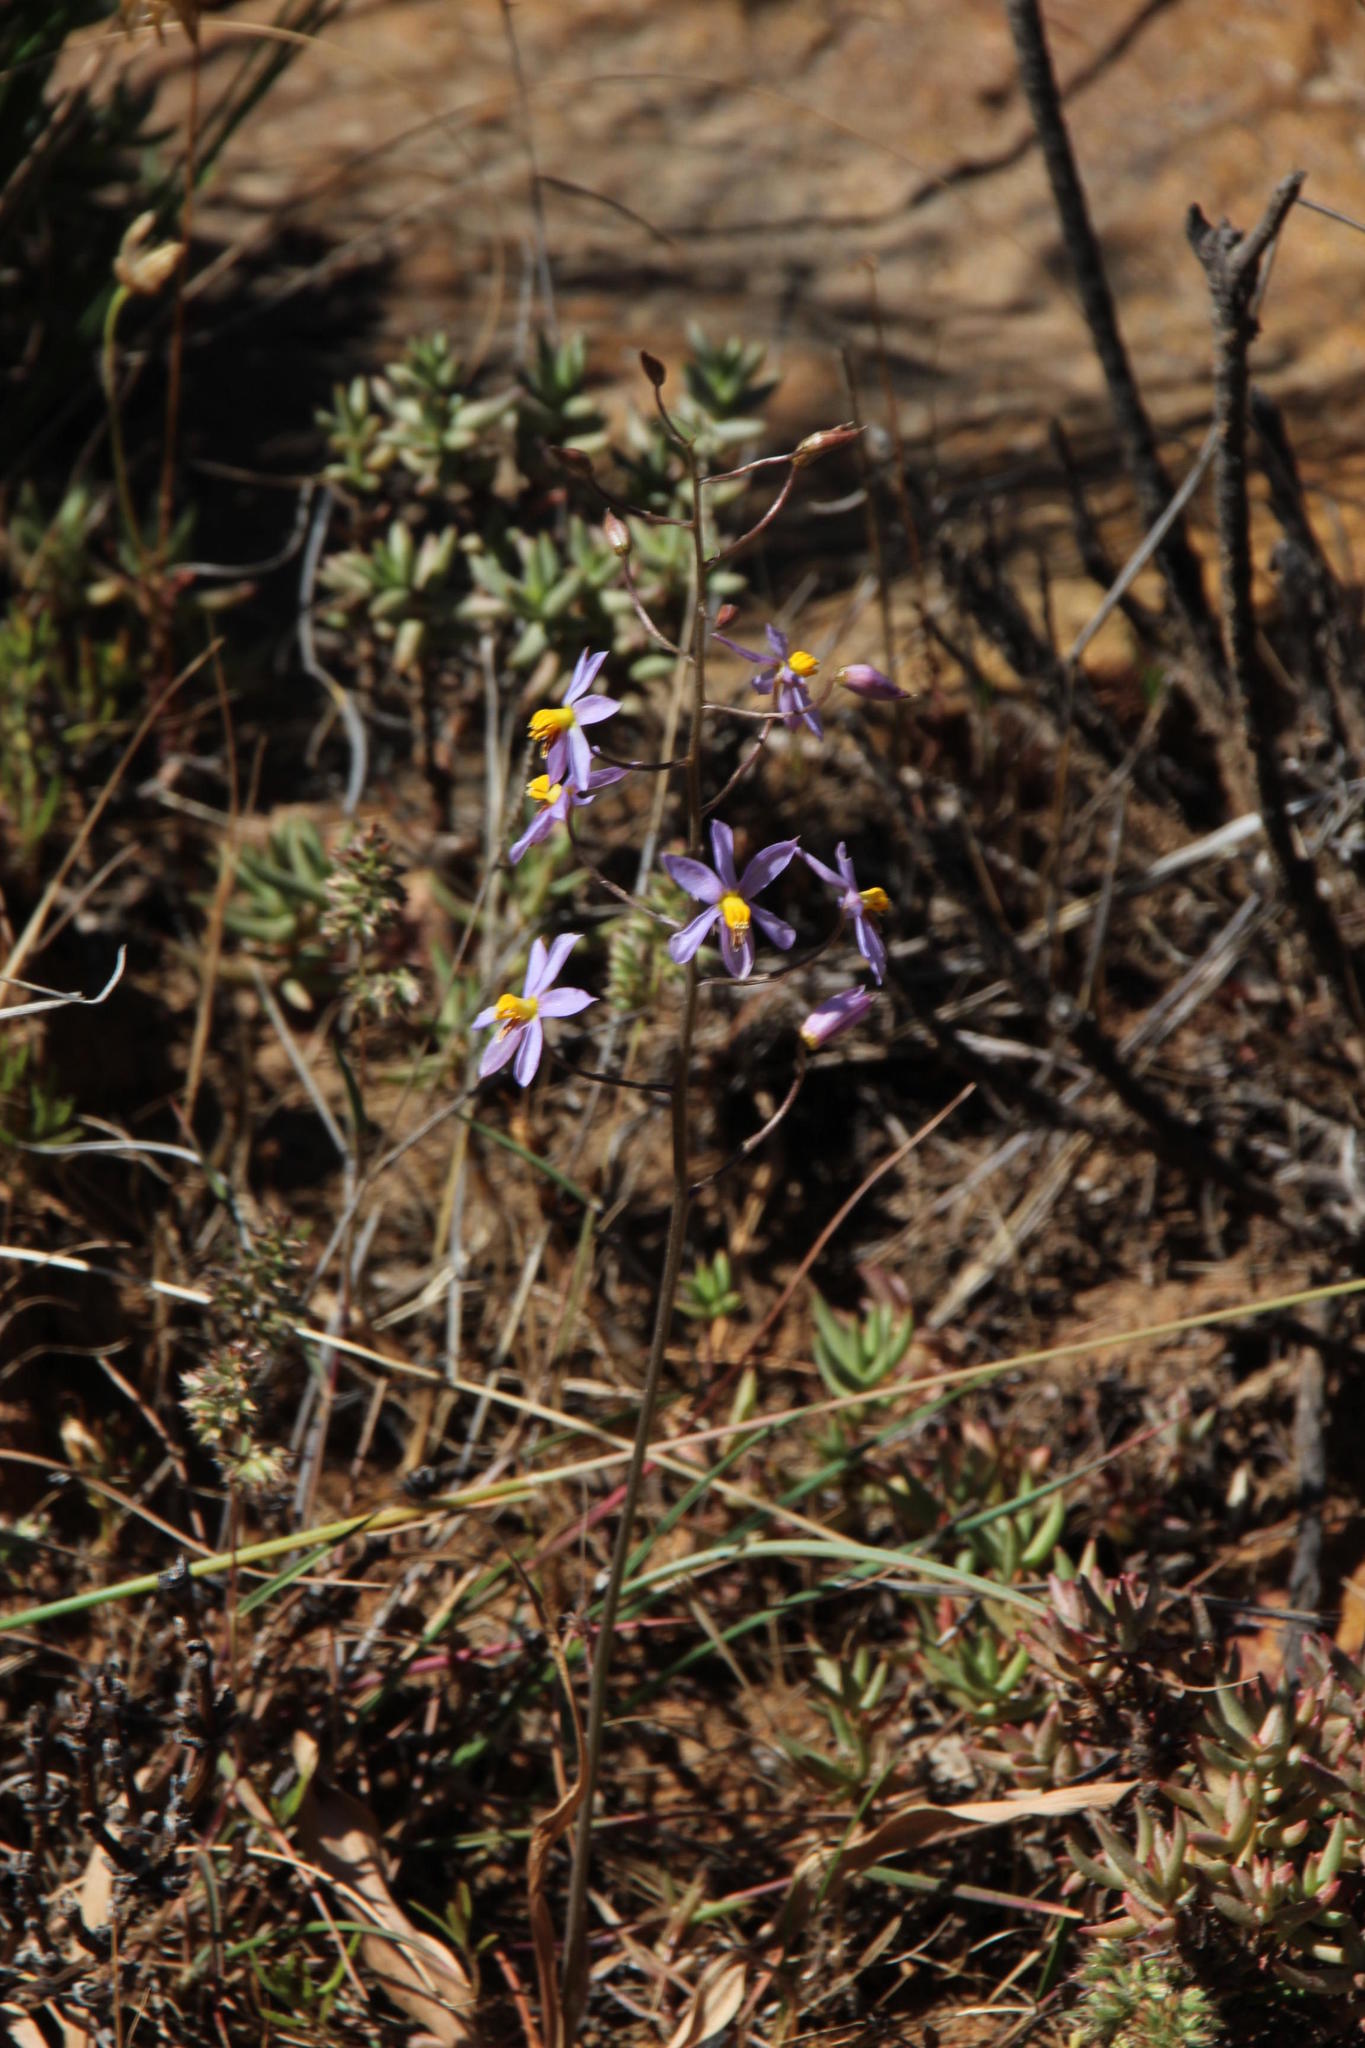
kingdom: Plantae
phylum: Tracheophyta
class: Liliopsida
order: Asparagales
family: Tecophilaeaceae
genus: Cyanella
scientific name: Cyanella hyacinthoides
